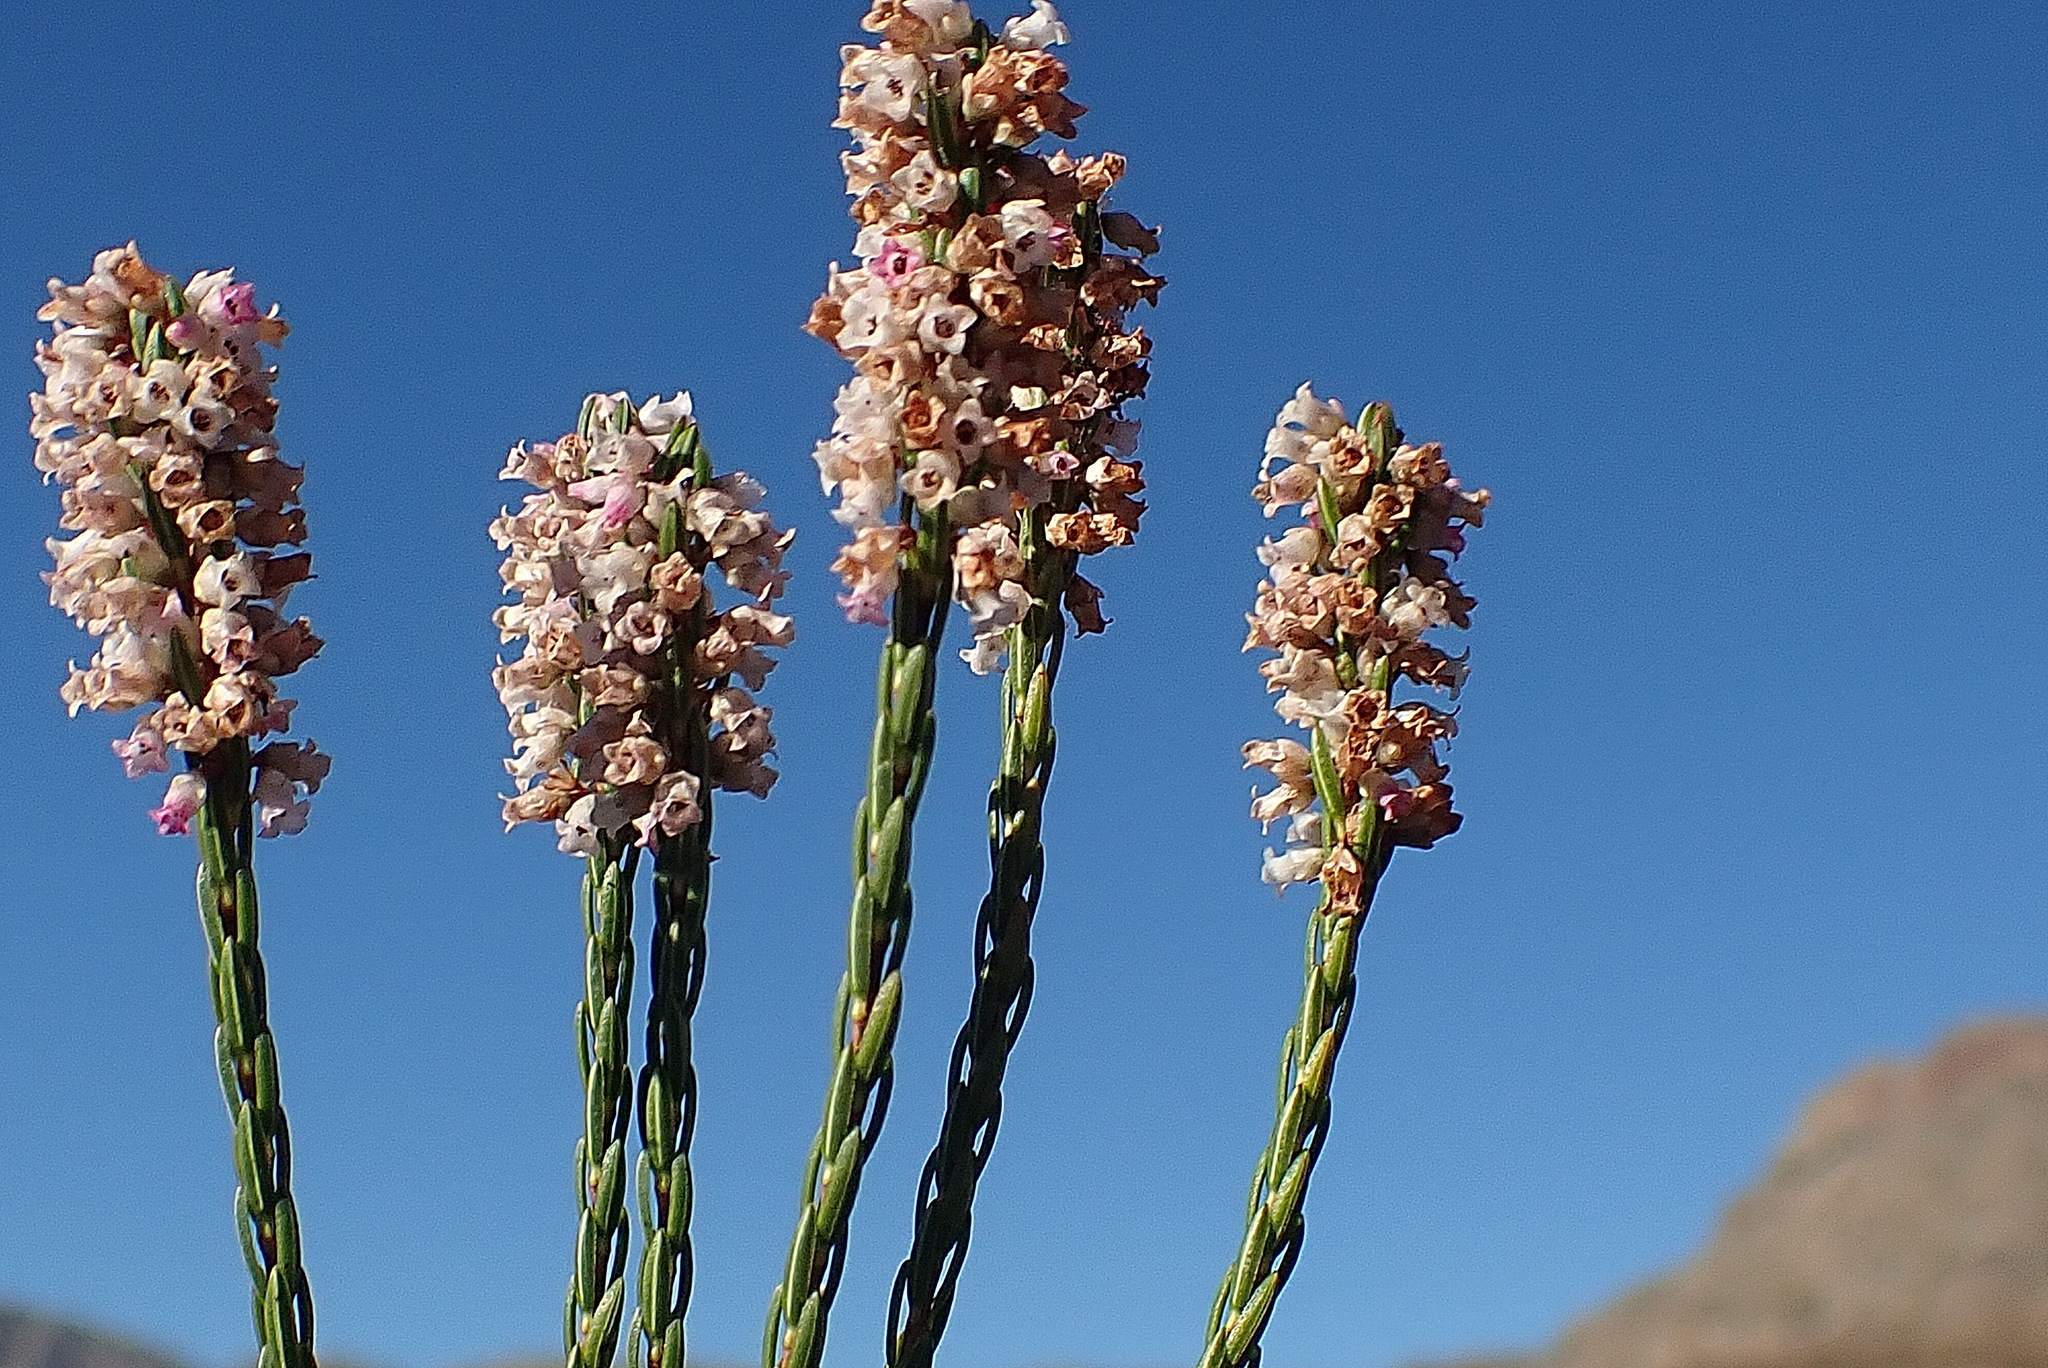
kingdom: Plantae
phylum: Tracheophyta
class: Magnoliopsida
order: Ericales
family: Ericaceae
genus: Erica
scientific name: Erica articularis
